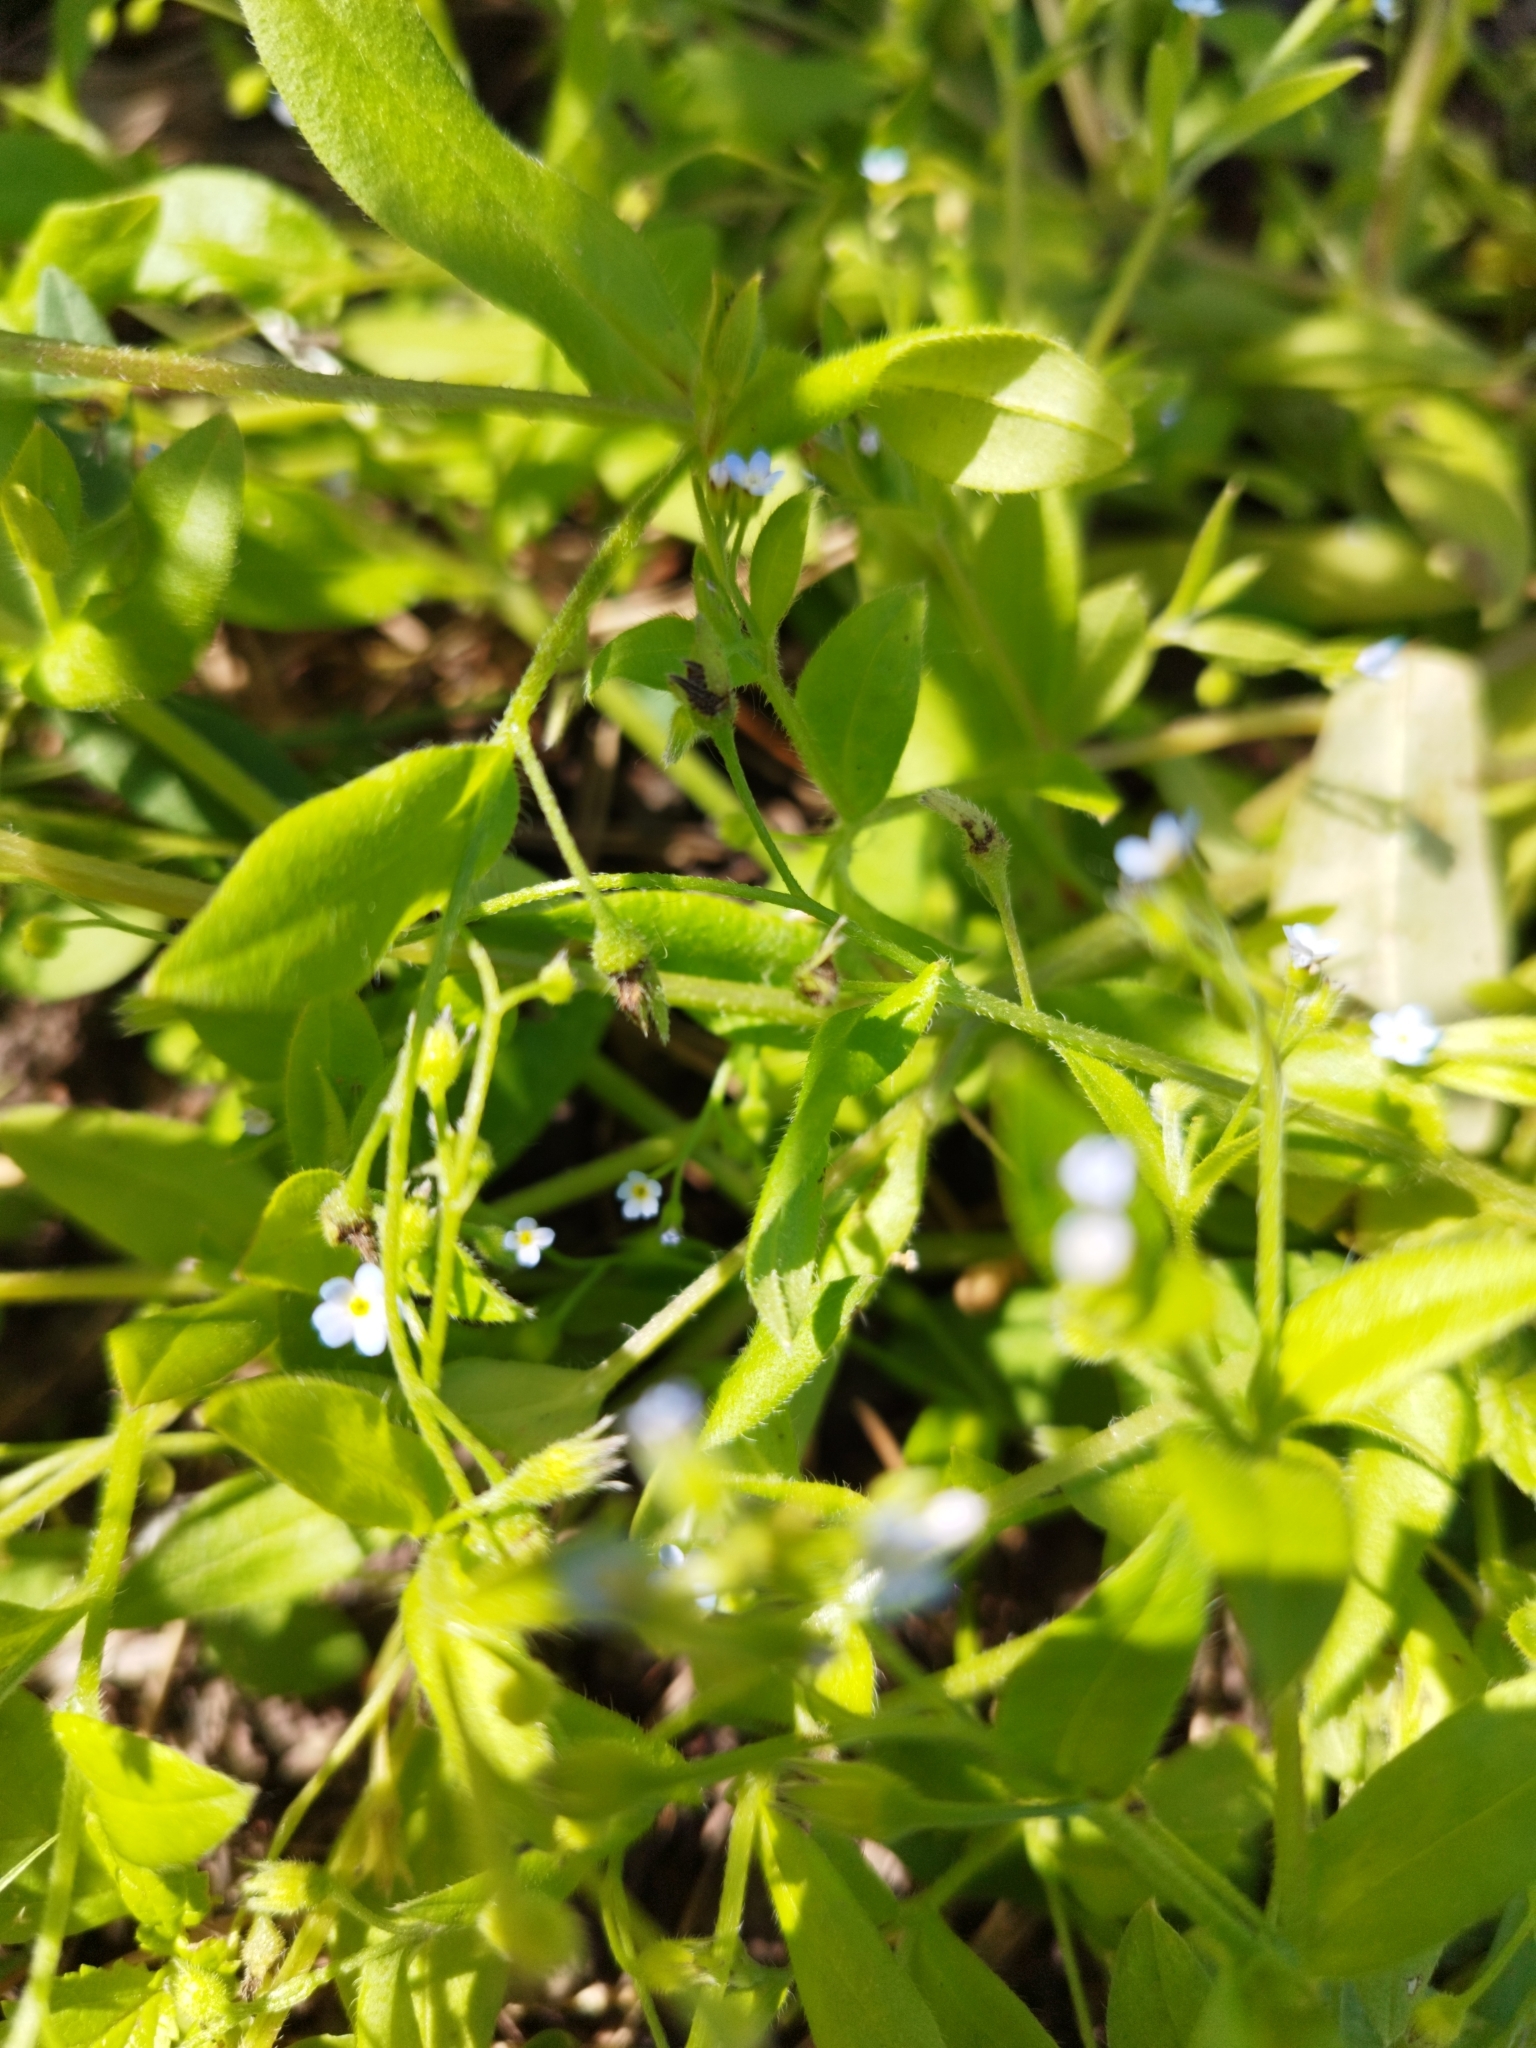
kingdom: Plantae
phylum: Tracheophyta
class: Magnoliopsida
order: Boraginales
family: Boraginaceae
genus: Myosotis
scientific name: Myosotis sparsiflora
